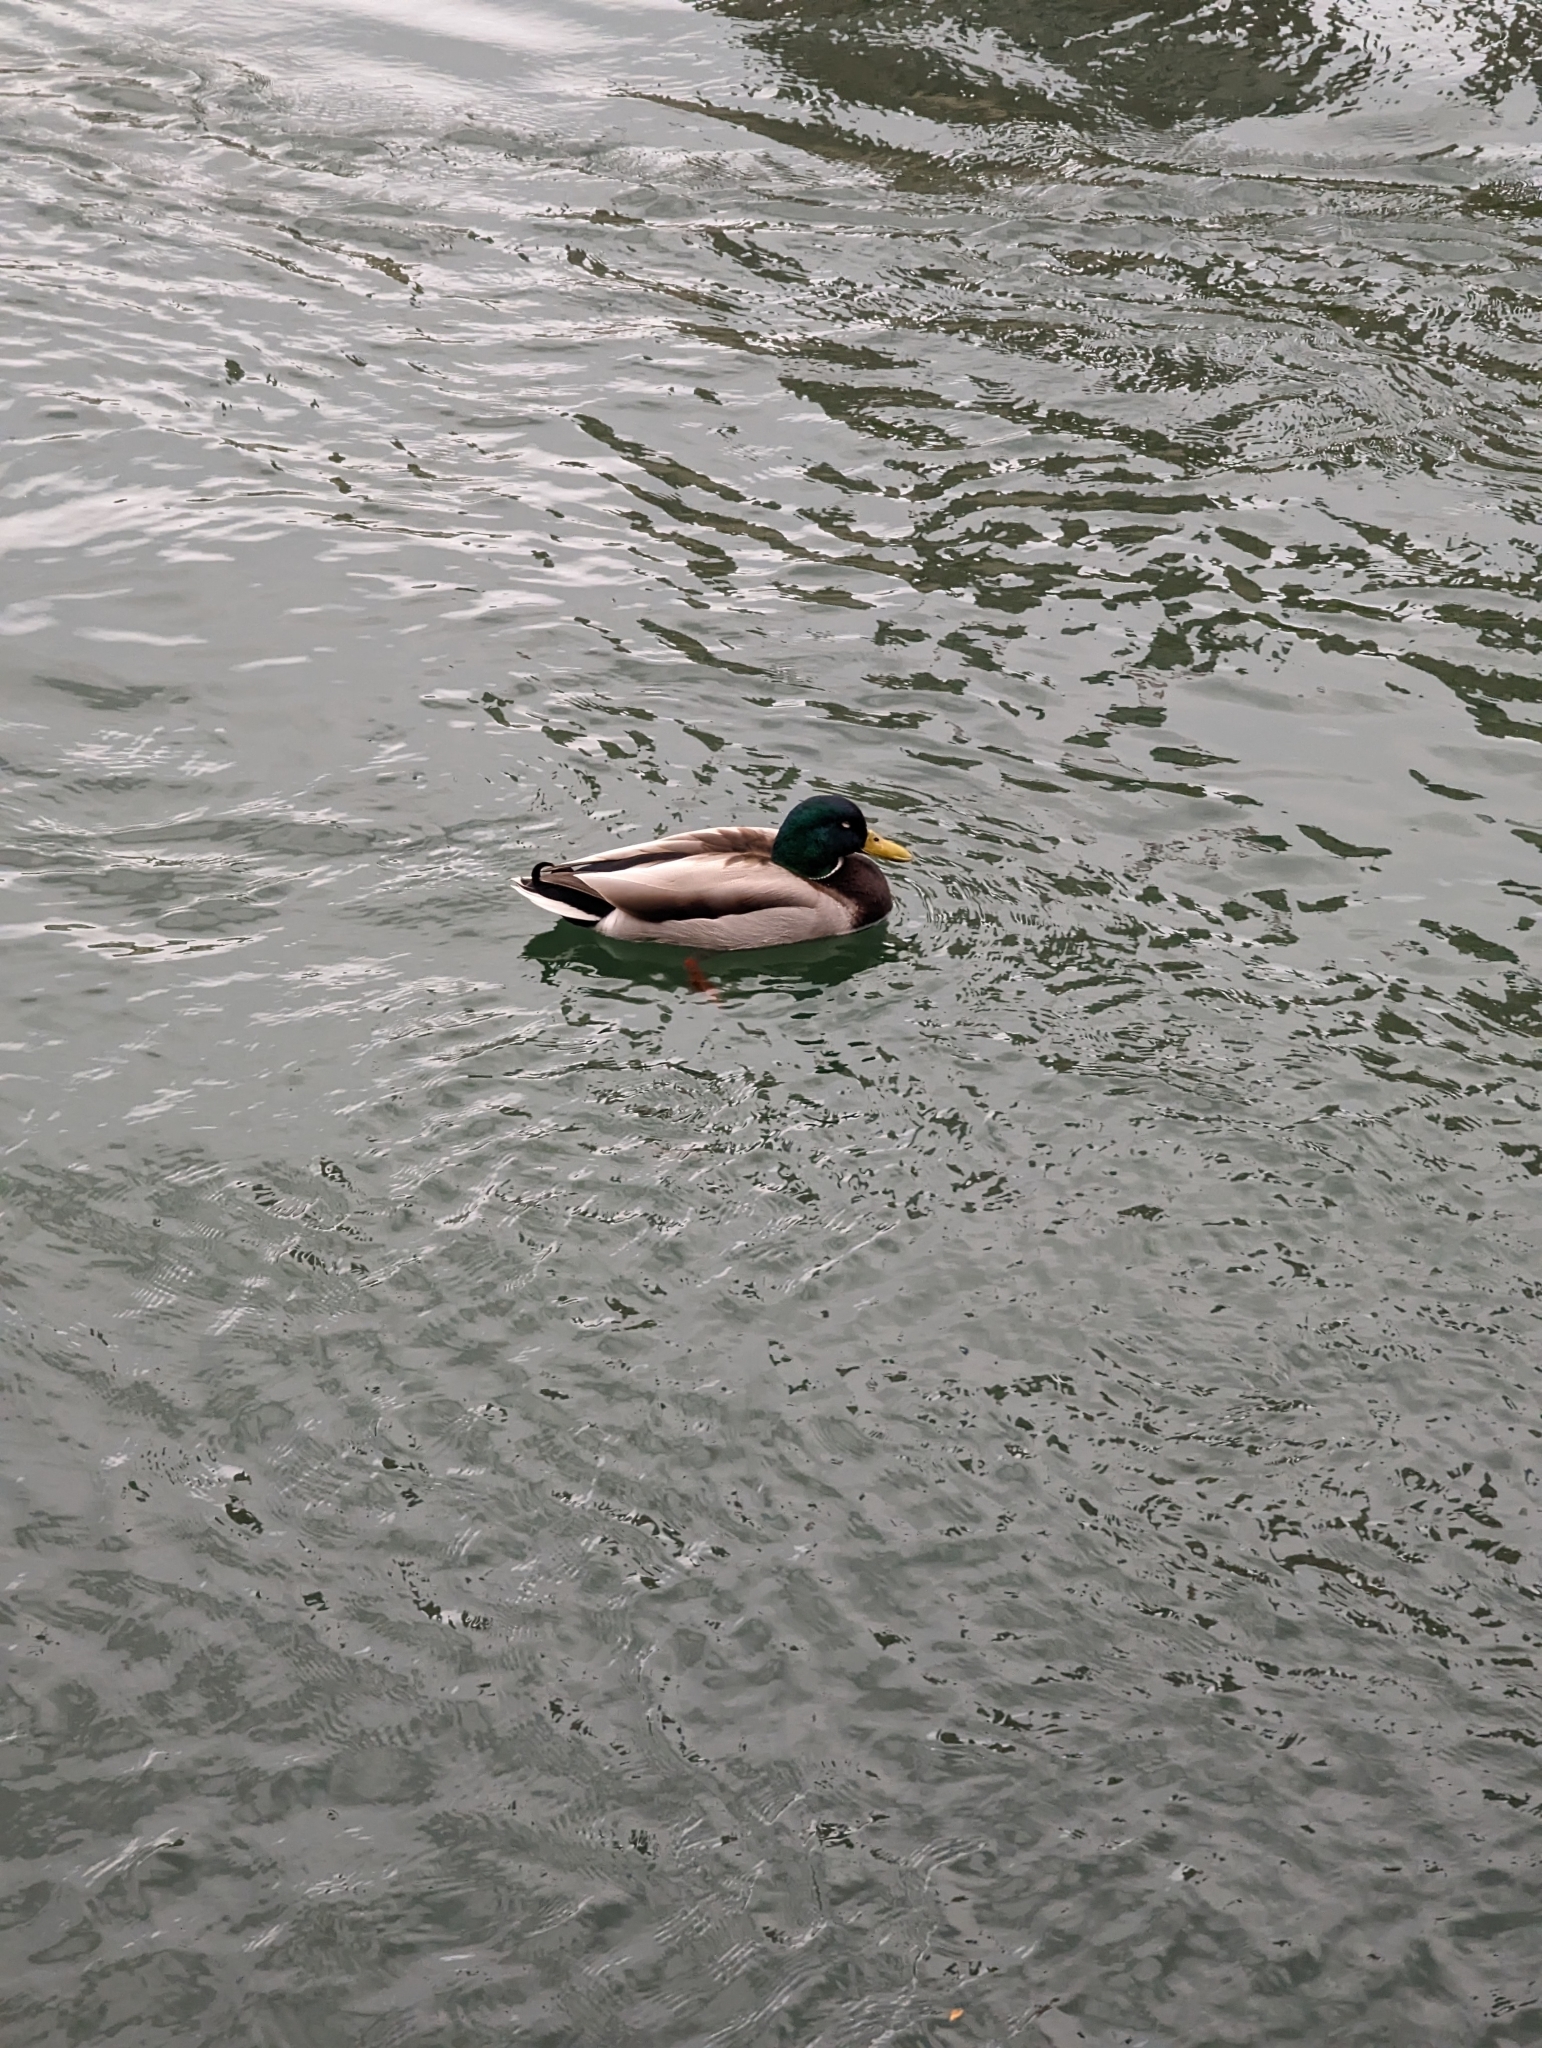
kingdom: Animalia
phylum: Chordata
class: Aves
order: Anseriformes
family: Anatidae
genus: Anas
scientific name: Anas platyrhynchos
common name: Mallard
